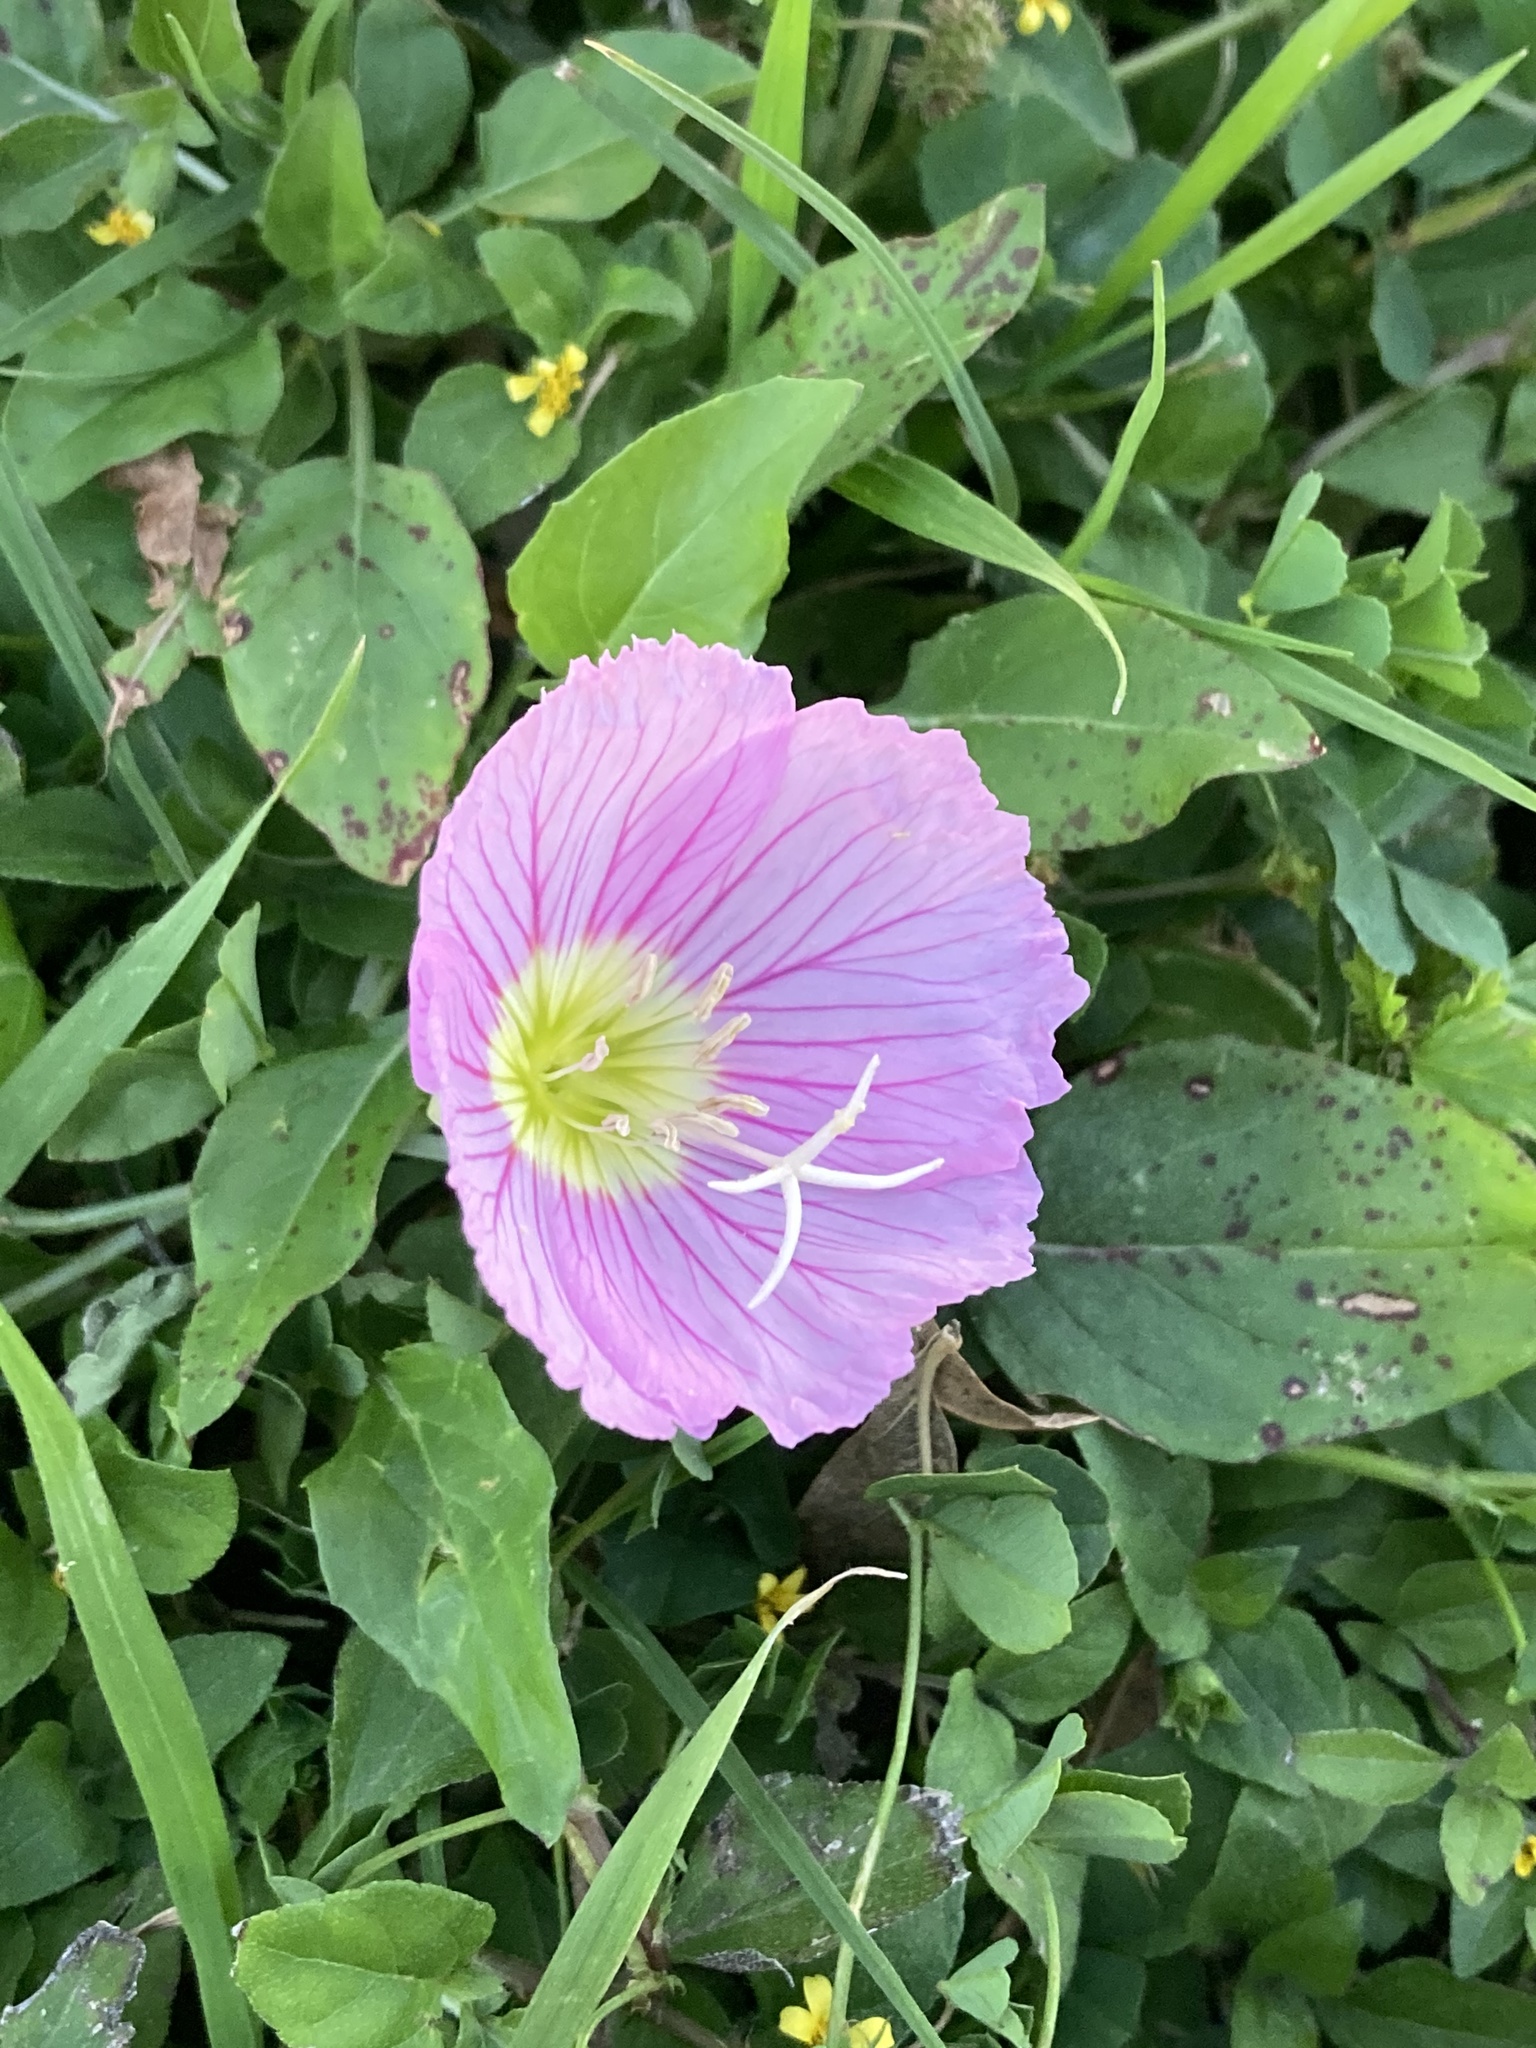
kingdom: Plantae
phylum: Tracheophyta
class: Magnoliopsida
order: Myrtales
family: Onagraceae
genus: Oenothera
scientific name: Oenothera speciosa
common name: White evening-primrose
